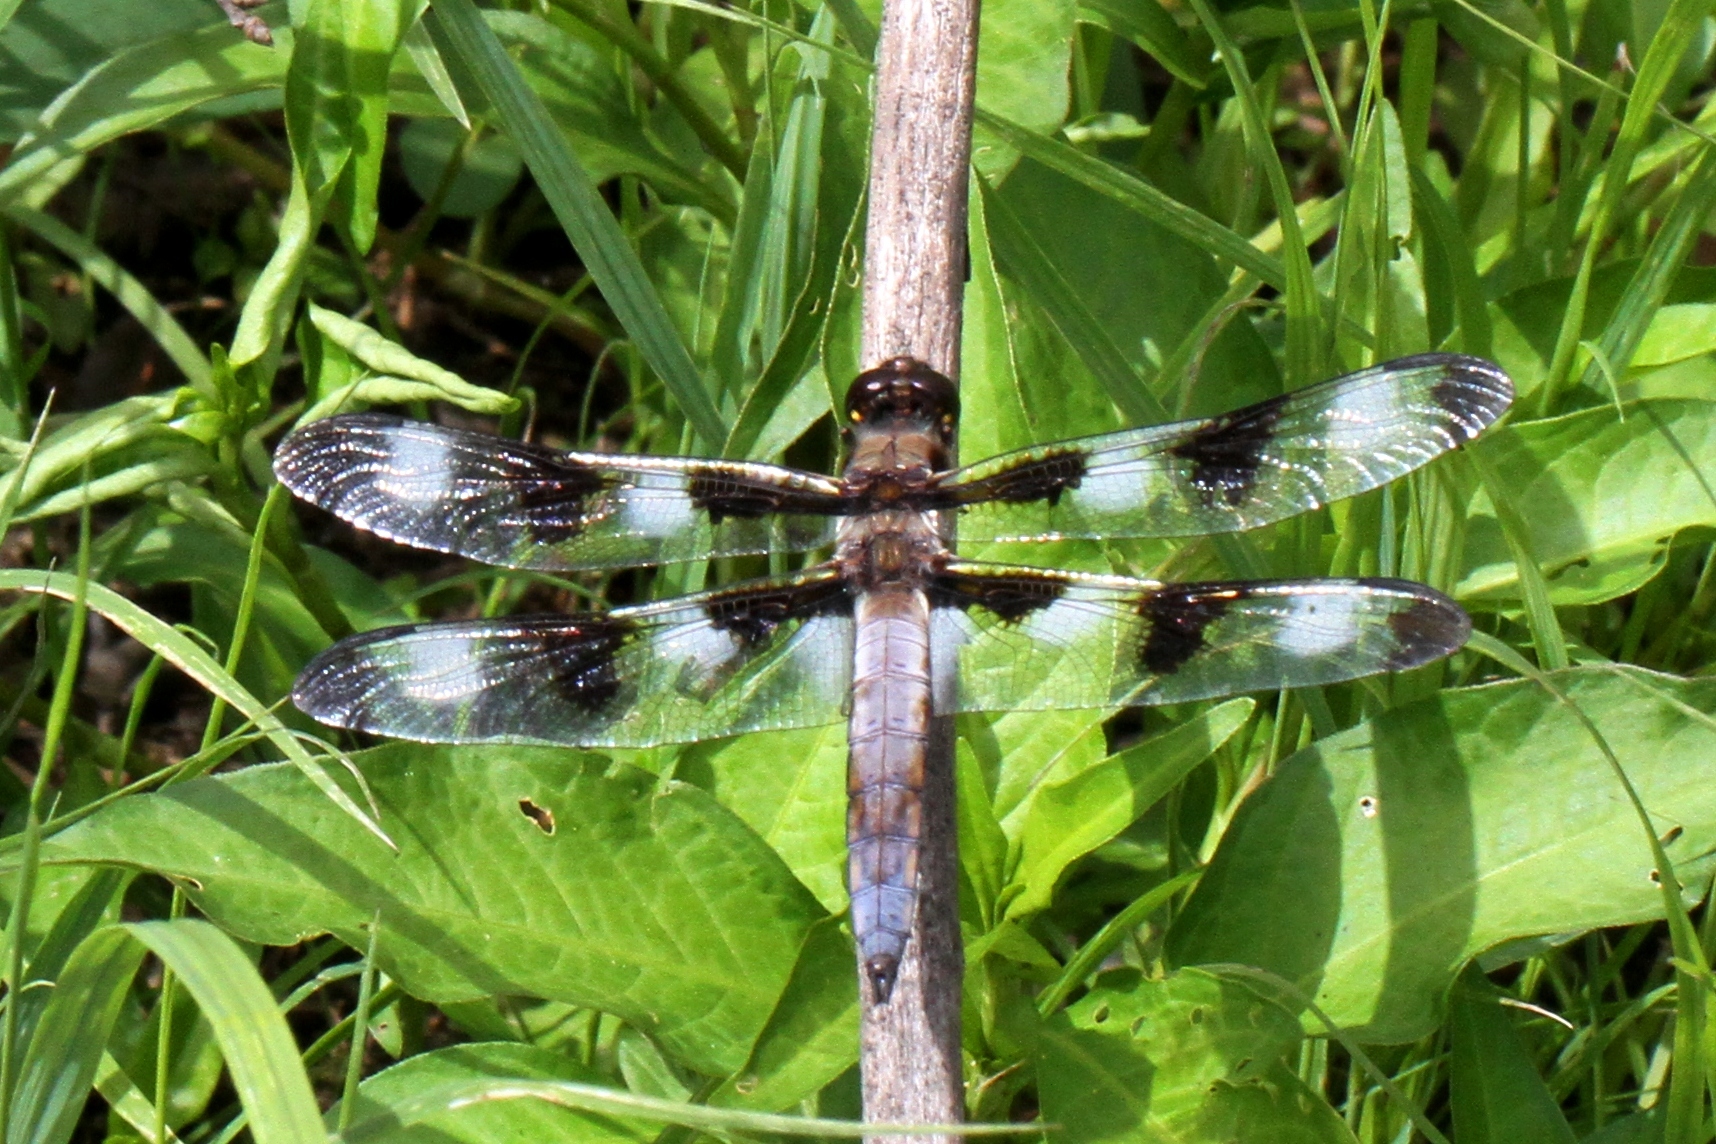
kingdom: Animalia
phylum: Arthropoda
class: Insecta
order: Odonata
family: Libellulidae
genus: Libellula
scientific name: Libellula pulchella
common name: Twelve-spotted skimmer
